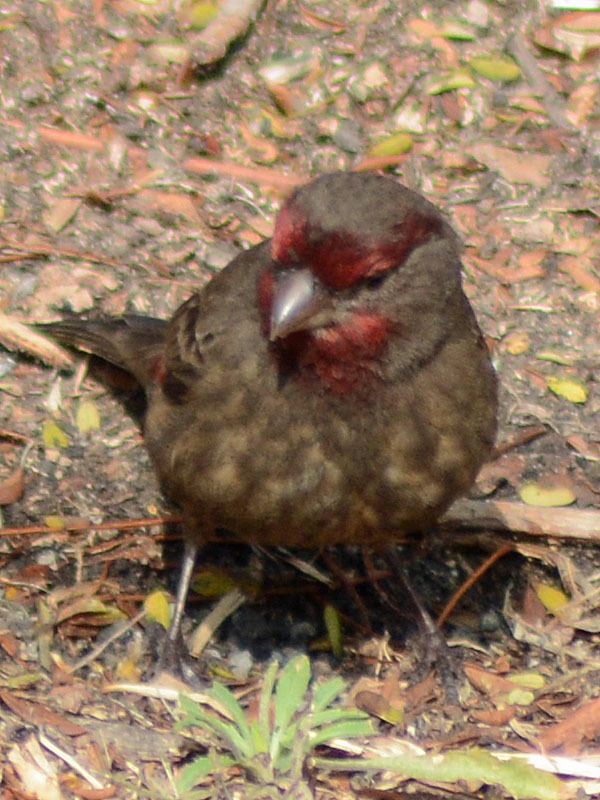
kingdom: Animalia
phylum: Chordata
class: Aves
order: Passeriformes
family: Fringillidae
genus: Haemorhous
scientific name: Haemorhous mexicanus
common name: House finch
